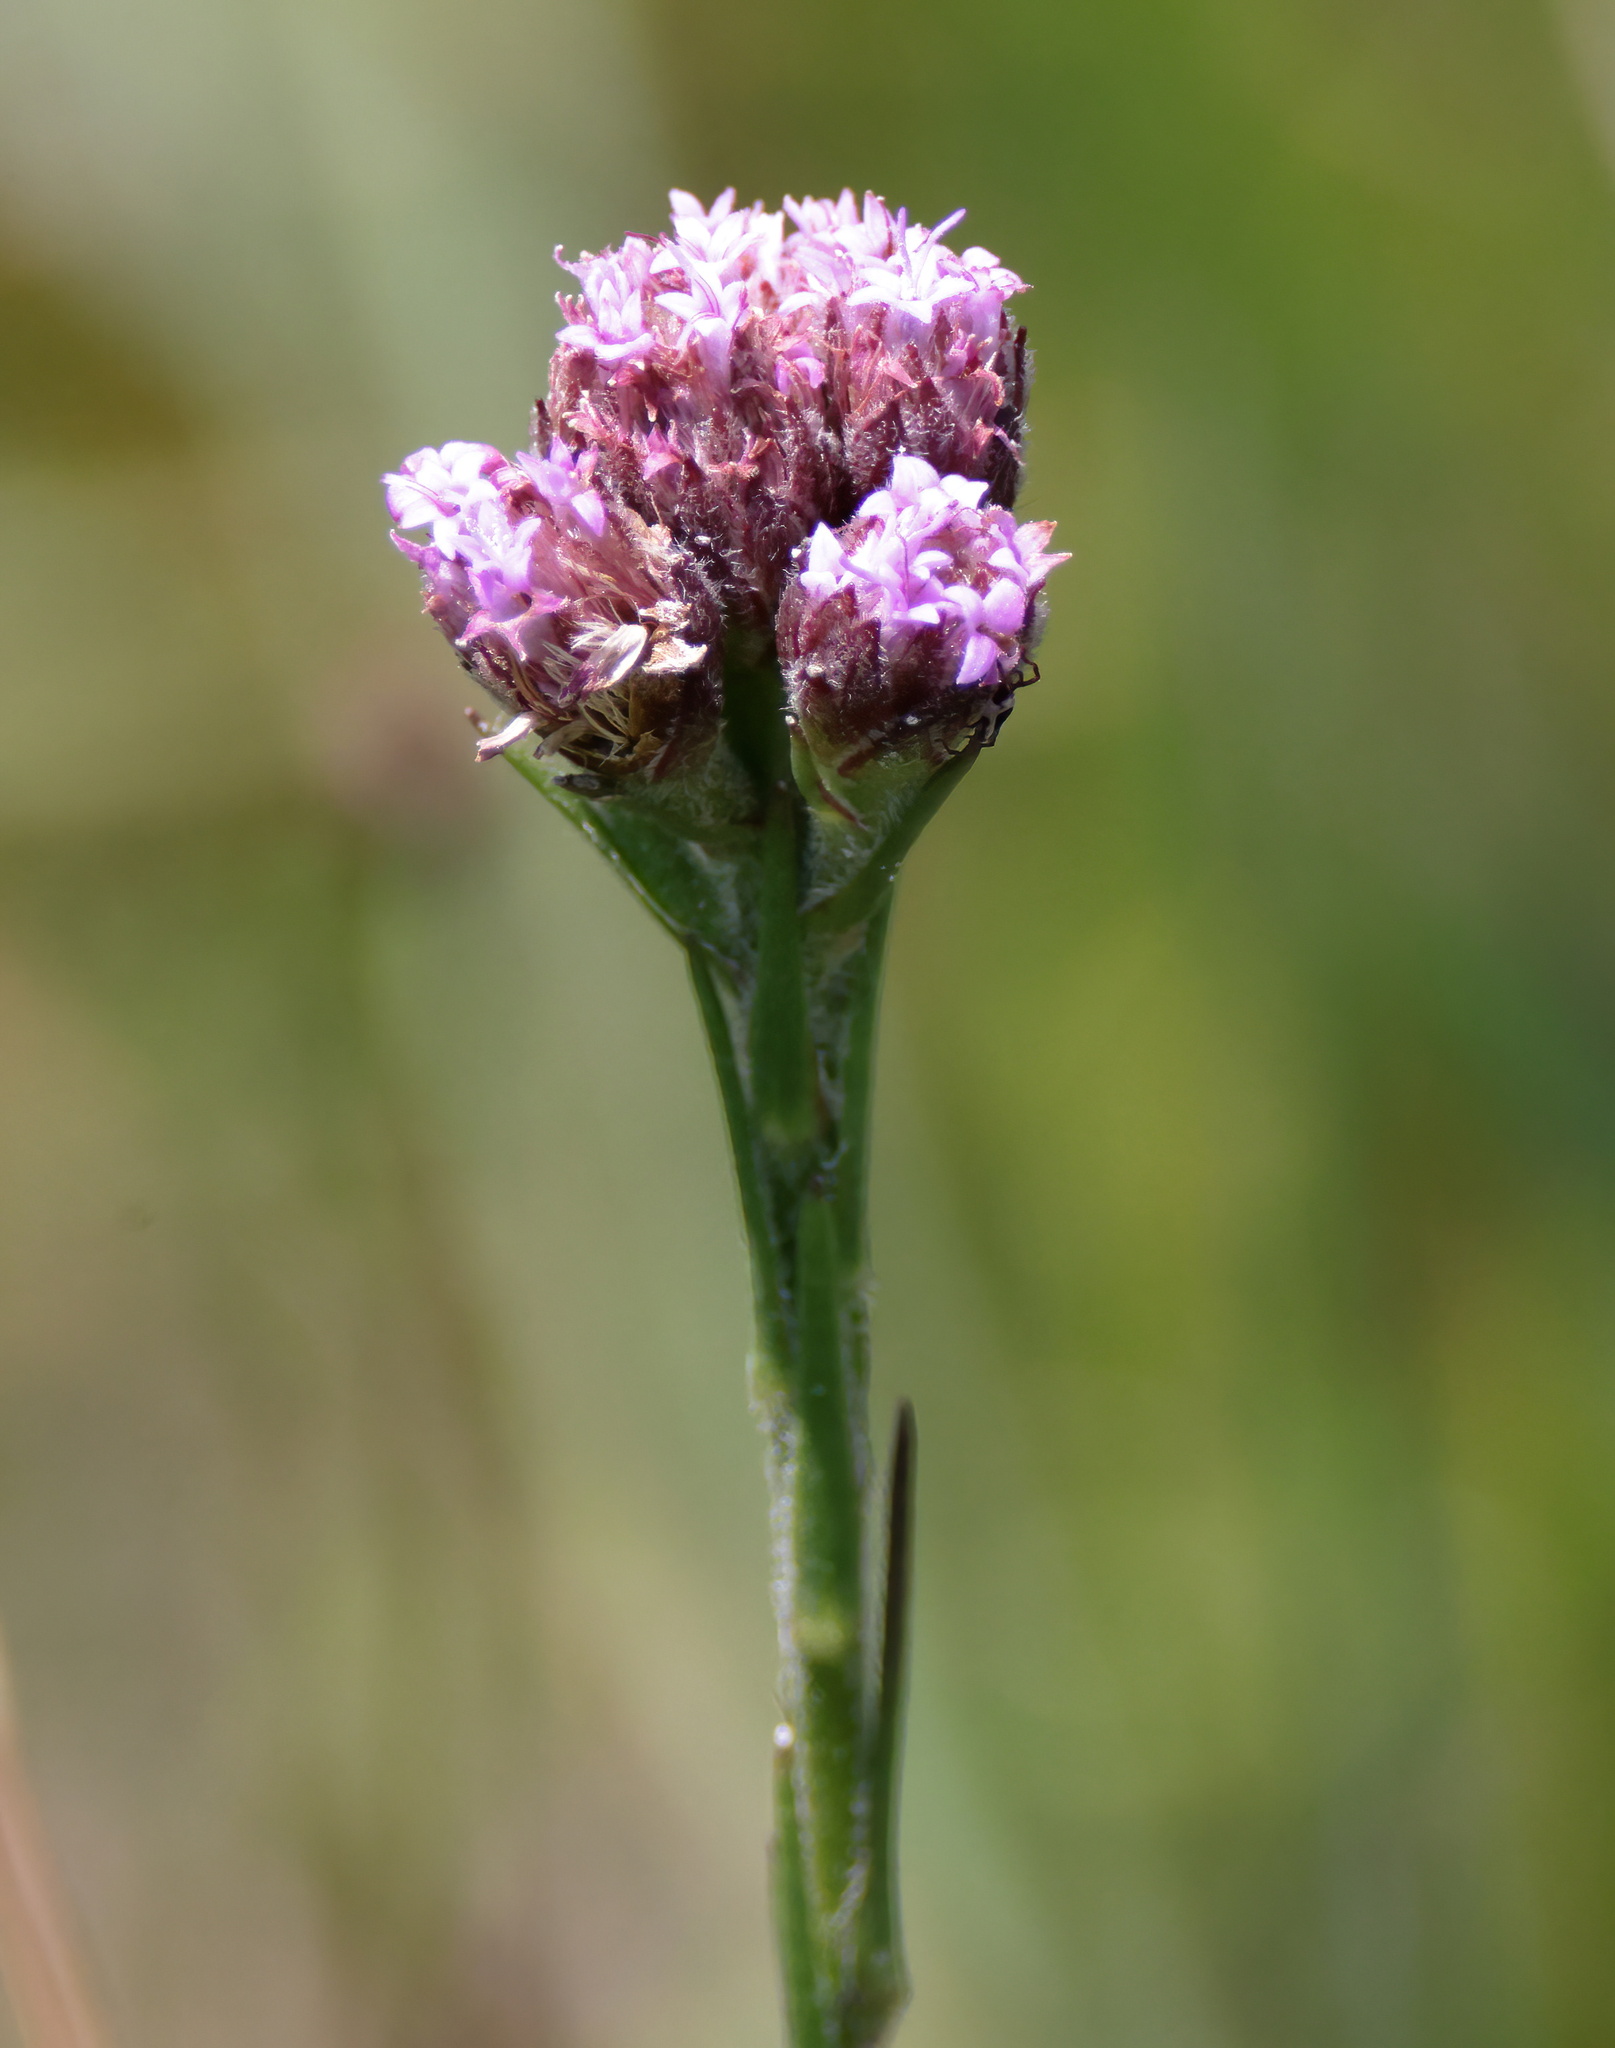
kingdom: Plantae
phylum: Tracheophyta
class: Magnoliopsida
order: Asterales
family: Asteraceae
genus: Carphephorus
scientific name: Carphephorus pseudoliatris
